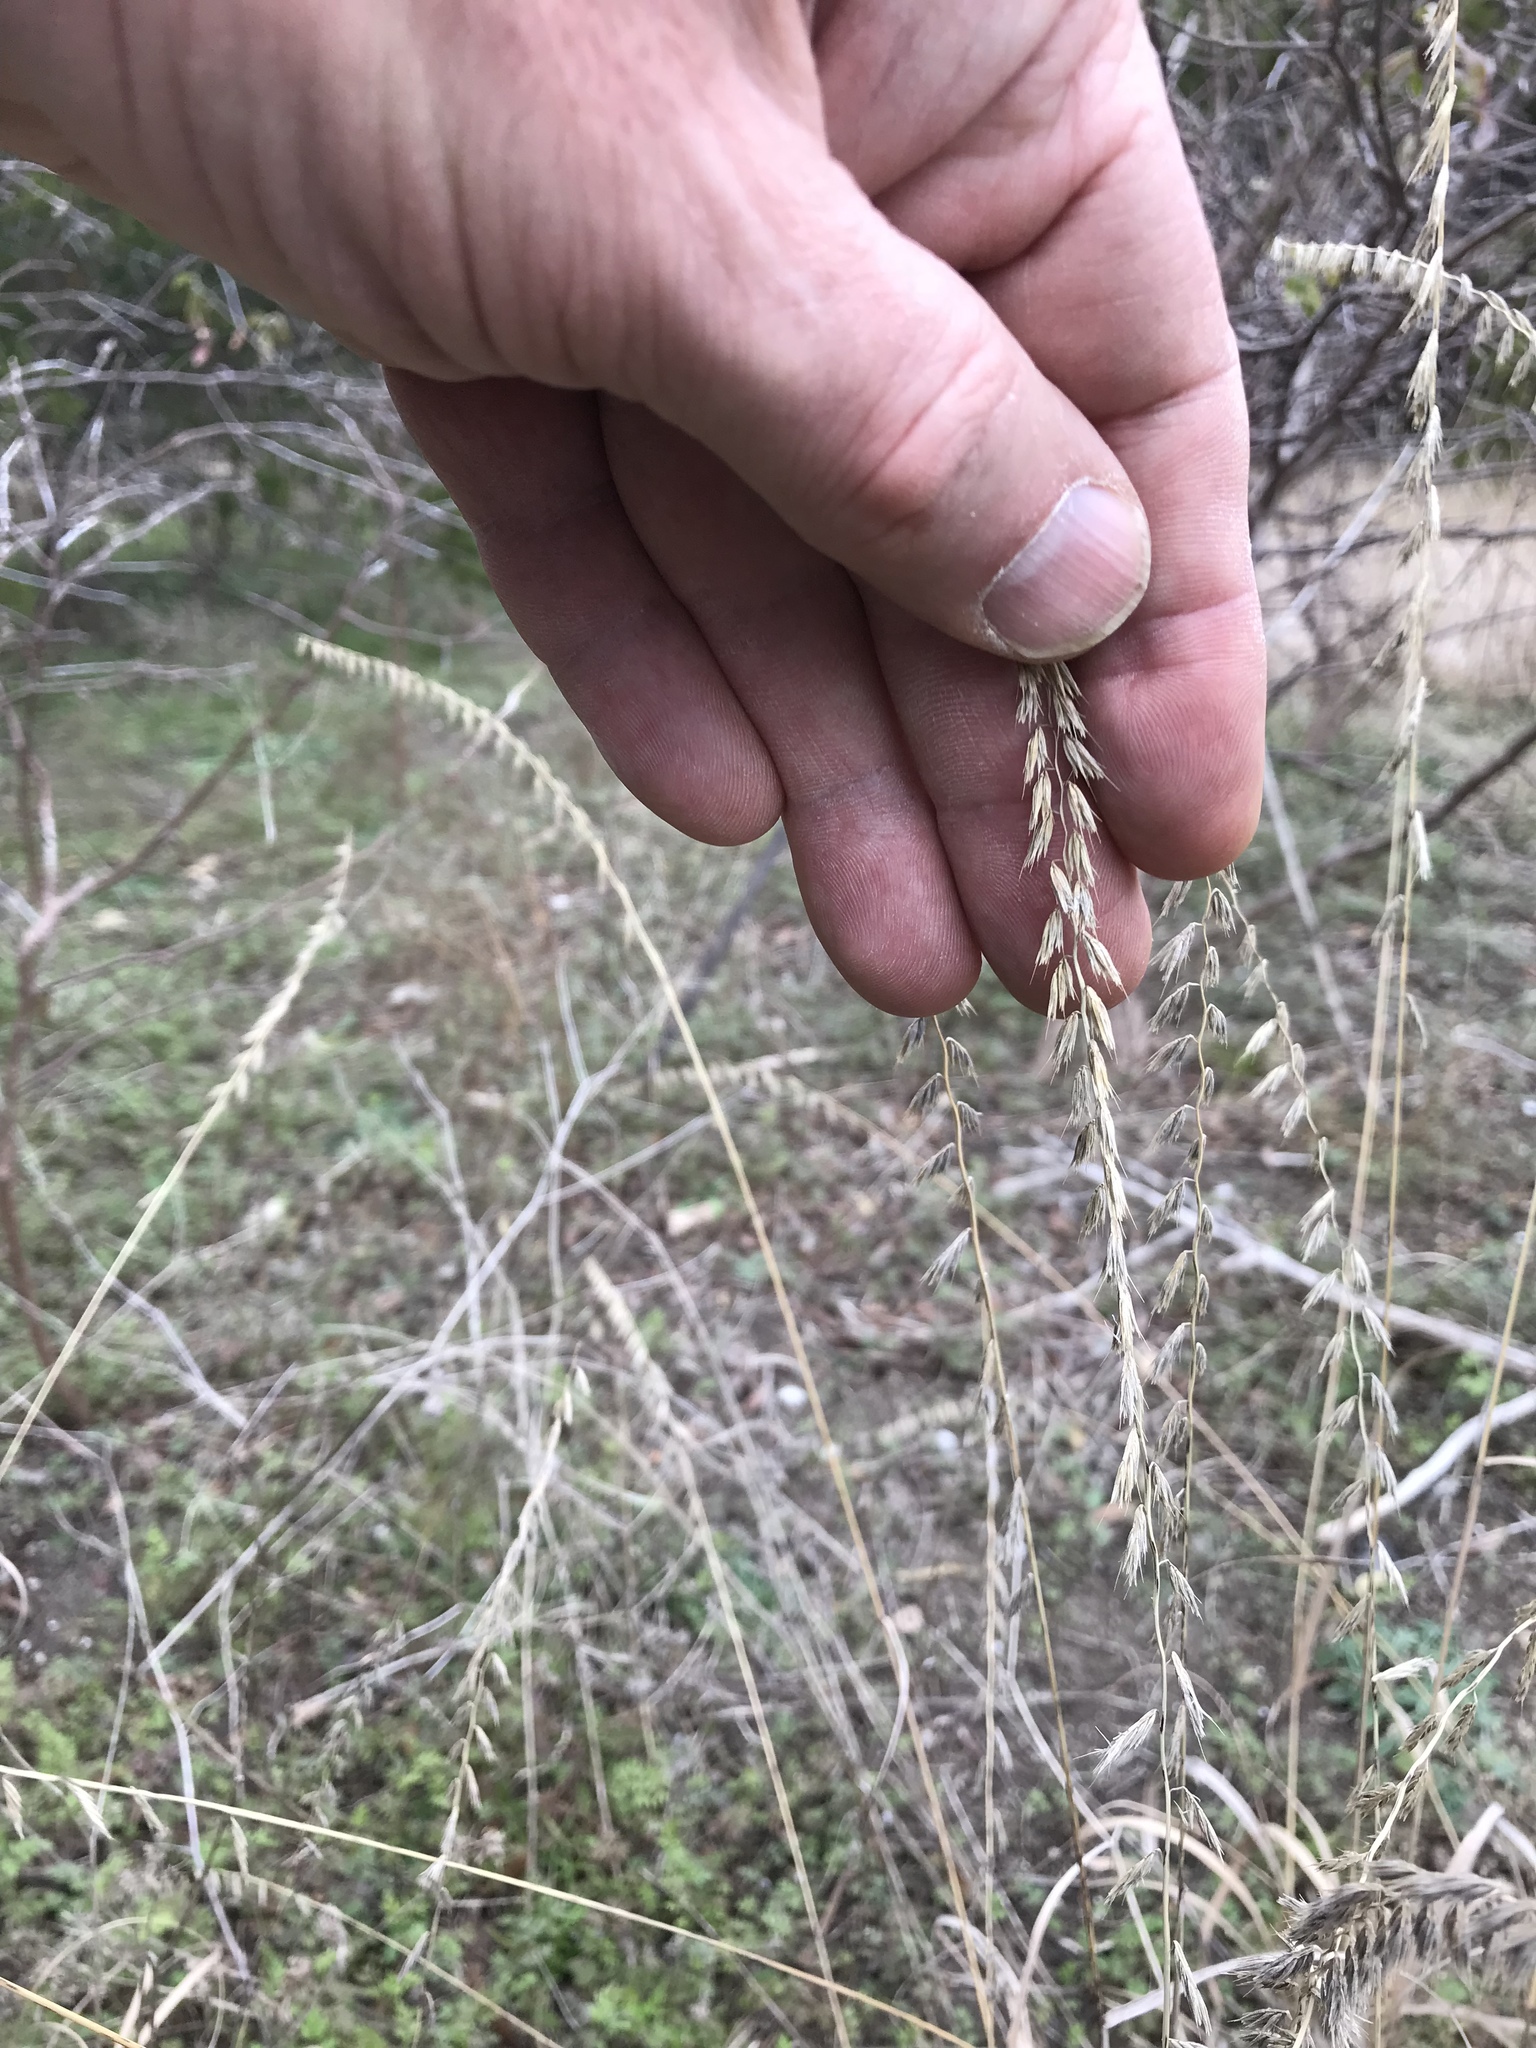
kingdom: Plantae
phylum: Tracheophyta
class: Liliopsida
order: Poales
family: Poaceae
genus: Bouteloua
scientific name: Bouteloua curtipendula
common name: Side-oats grama
